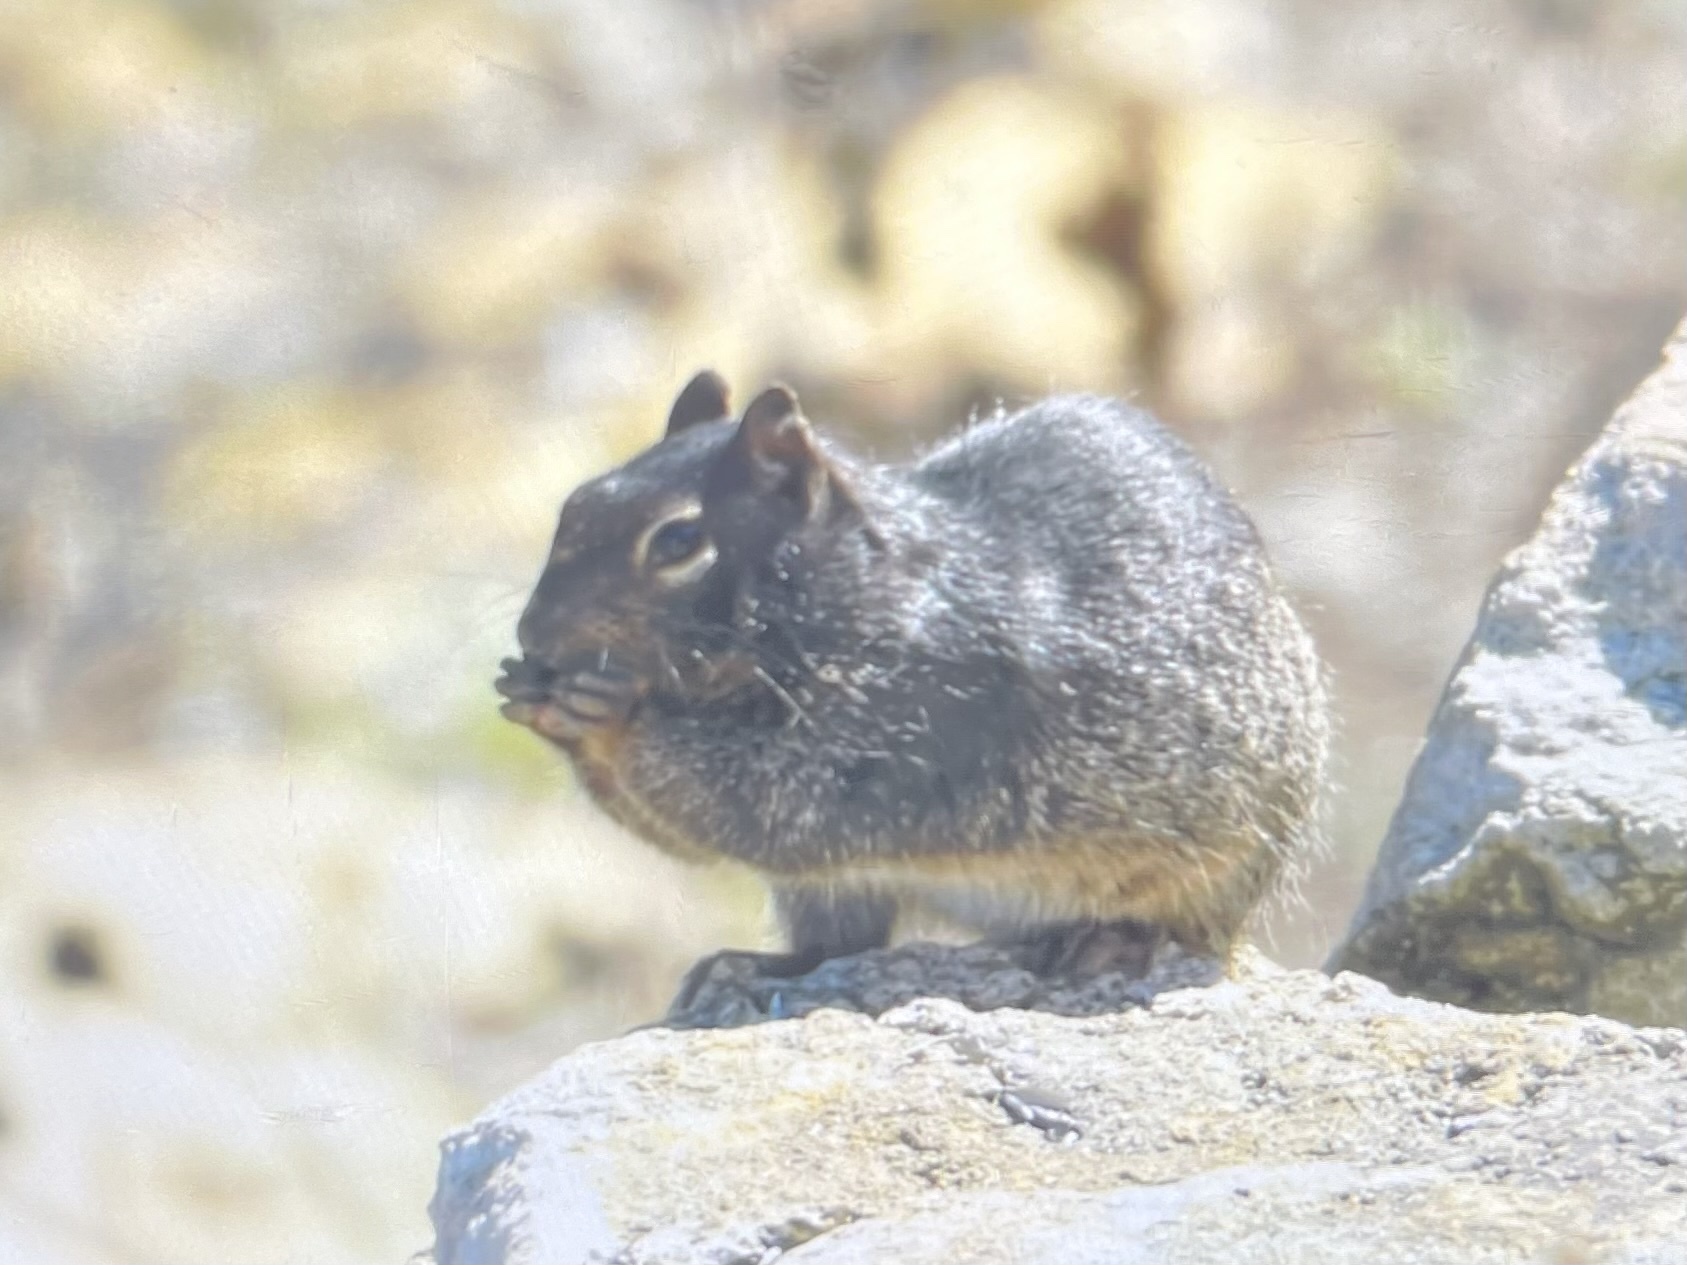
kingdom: Animalia
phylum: Chordata
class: Mammalia
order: Rodentia
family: Sciuridae
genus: Otospermophilus
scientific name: Otospermophilus variegatus
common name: Rock squirrel
